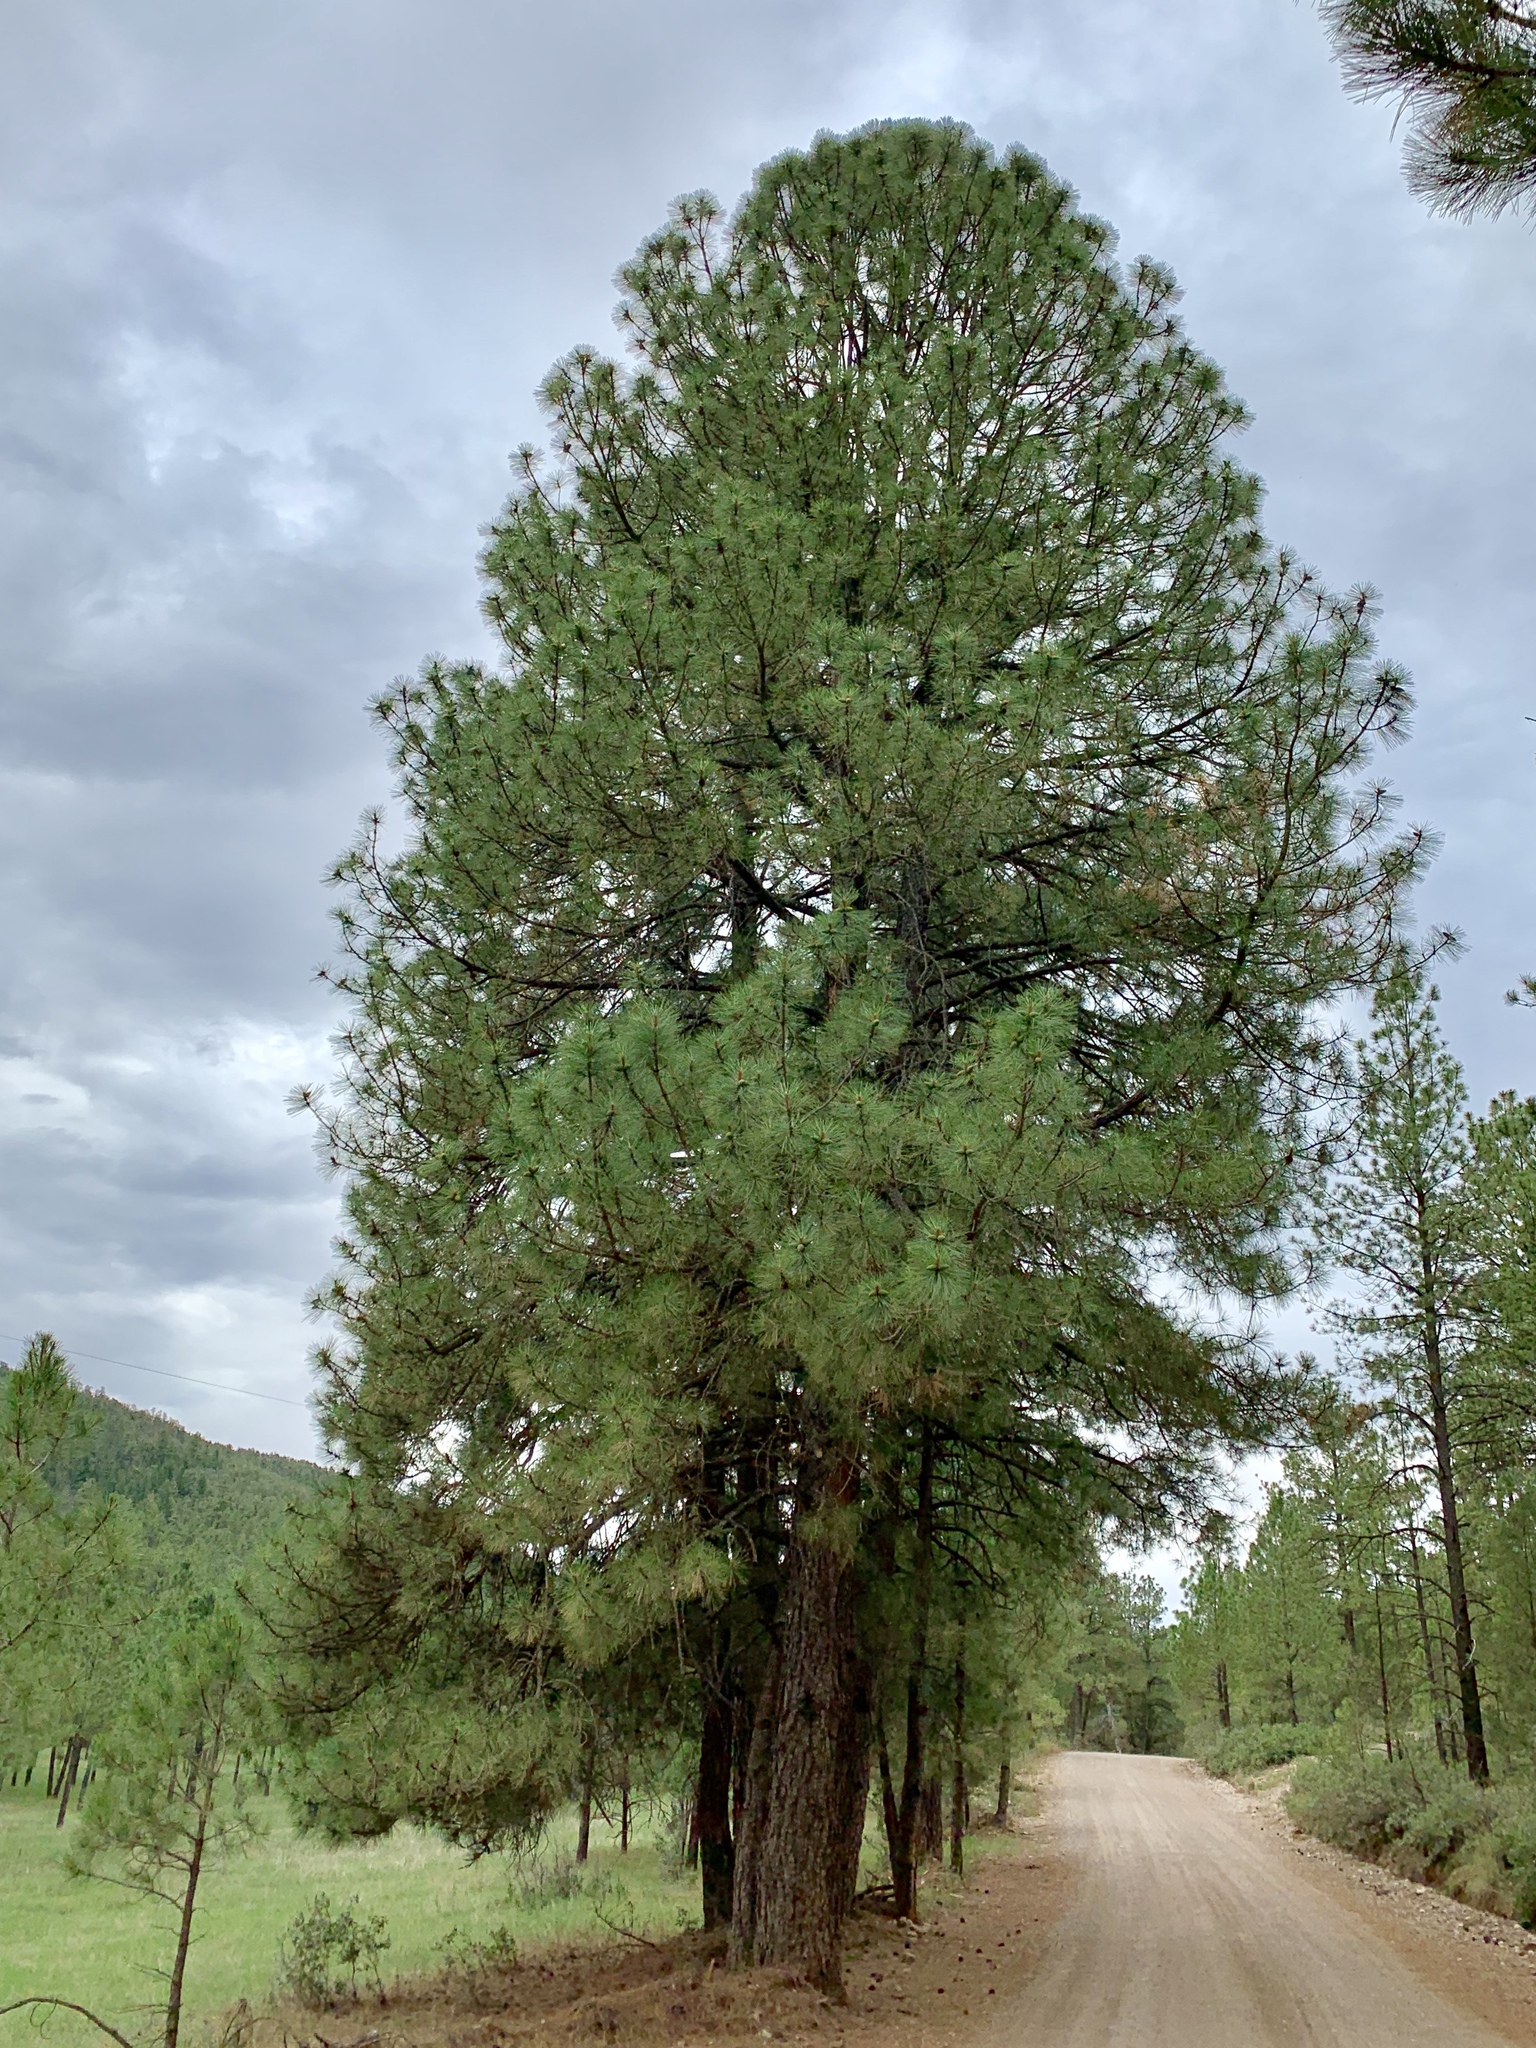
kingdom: Plantae
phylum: Tracheophyta
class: Pinopsida
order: Pinales
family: Pinaceae
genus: Pinus
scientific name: Pinus ponderosa
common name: Western yellow-pine
